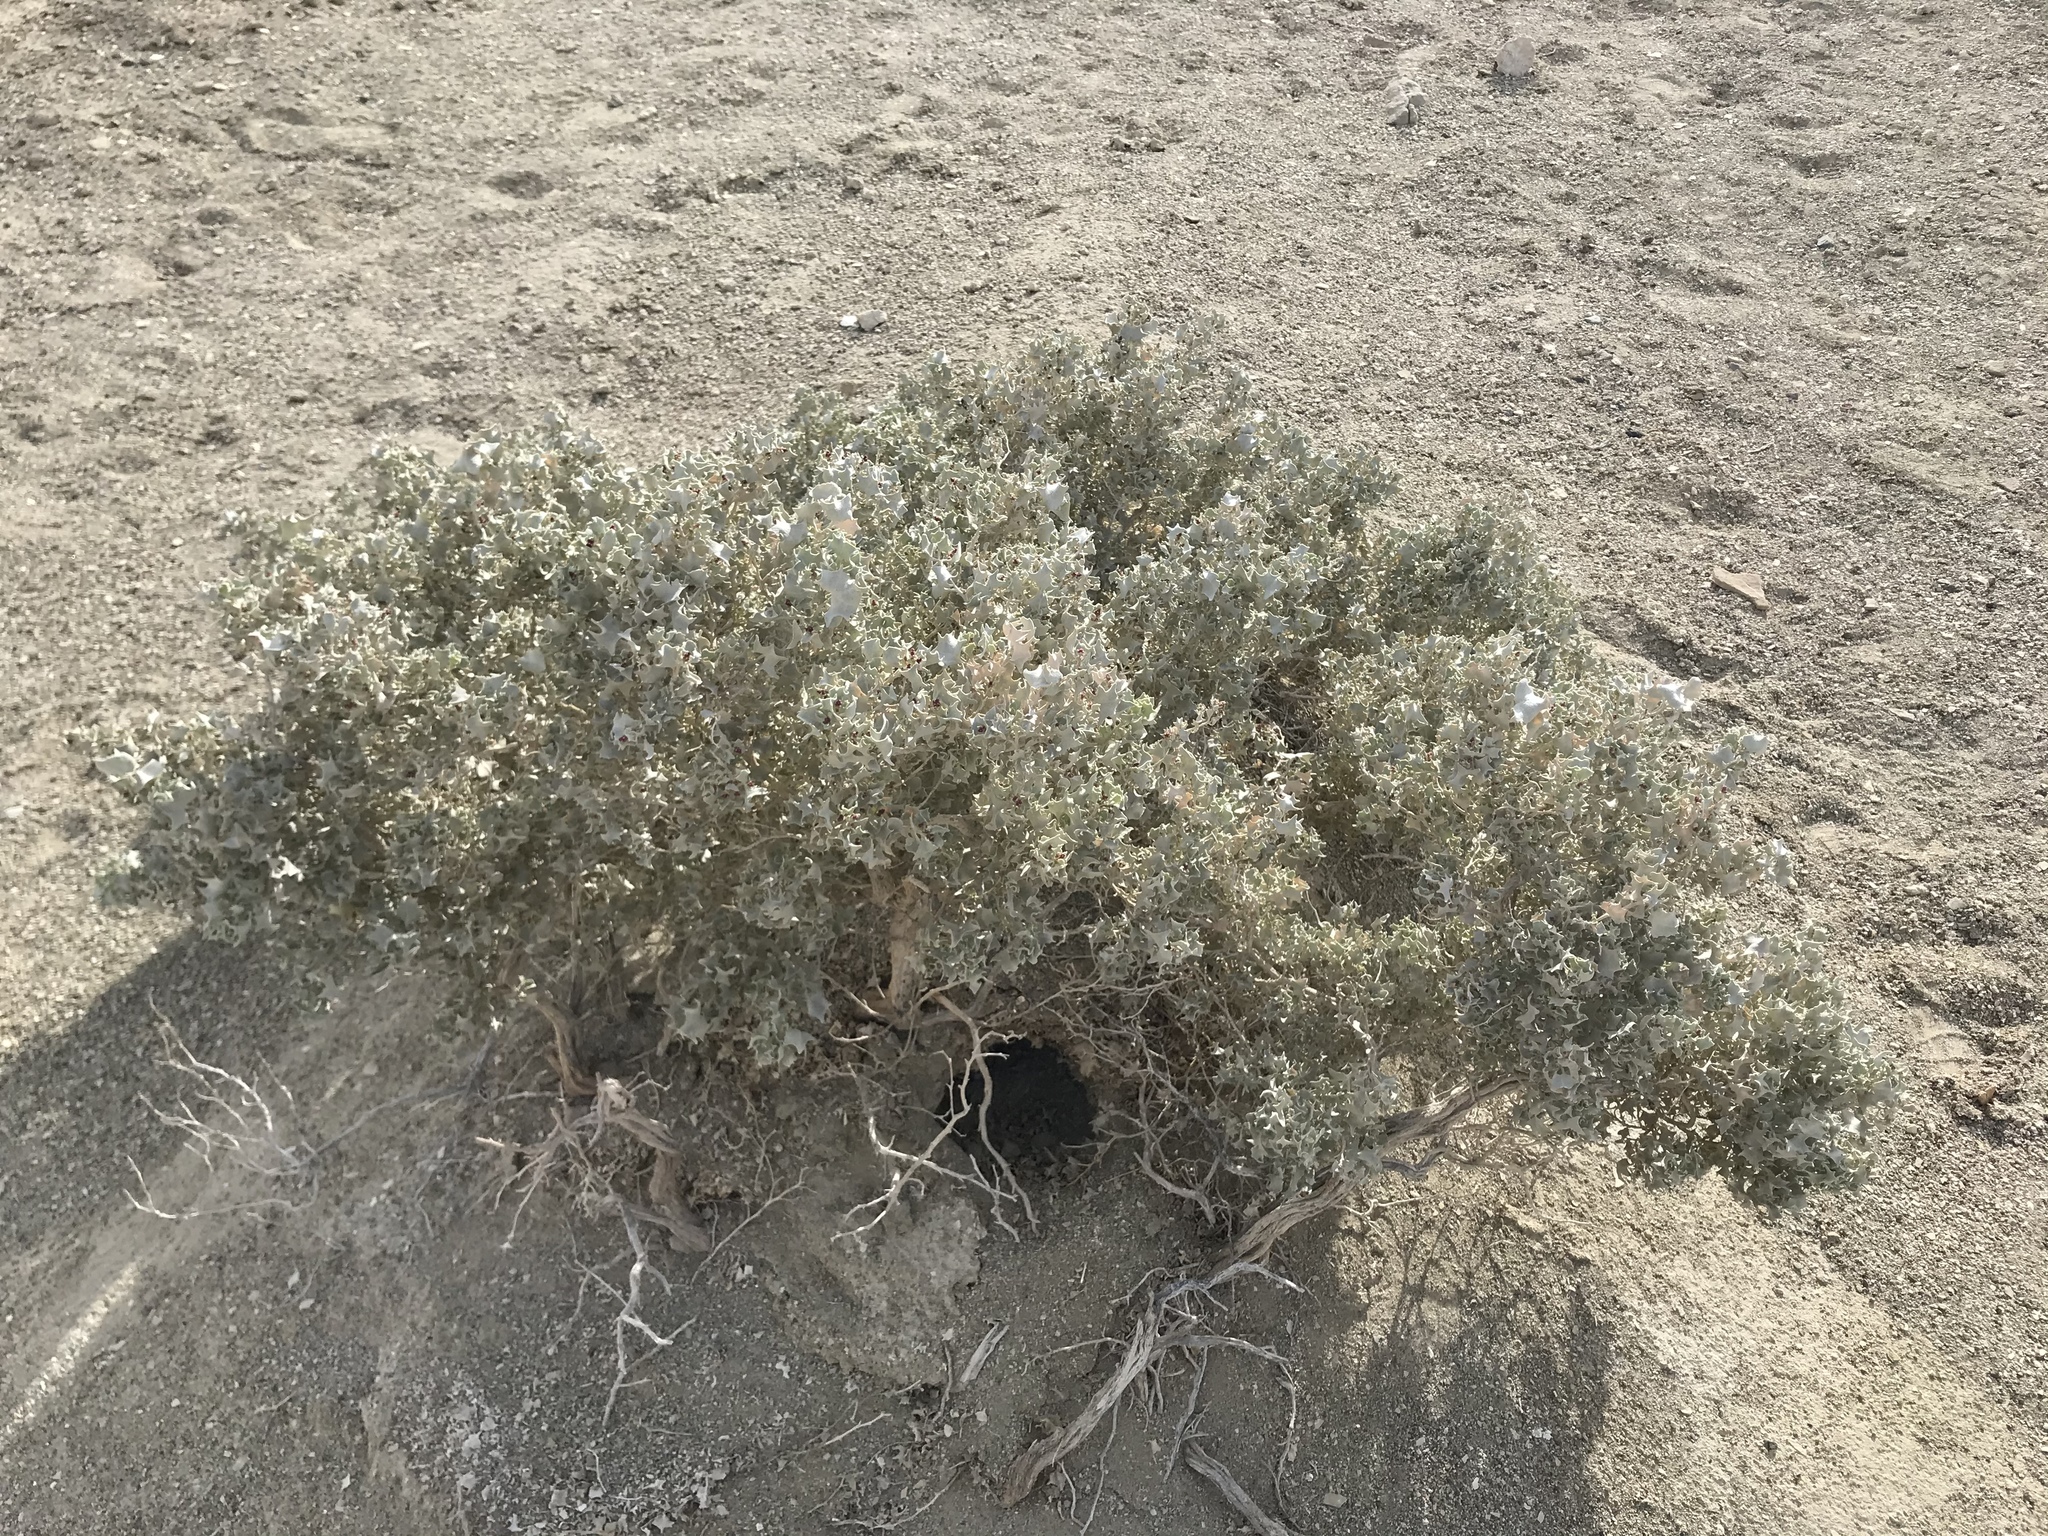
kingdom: Plantae
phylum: Tracheophyta
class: Magnoliopsida
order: Caryophyllales
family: Amaranthaceae
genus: Atriplex
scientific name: Atriplex hymenelytra
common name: Desert-holly
